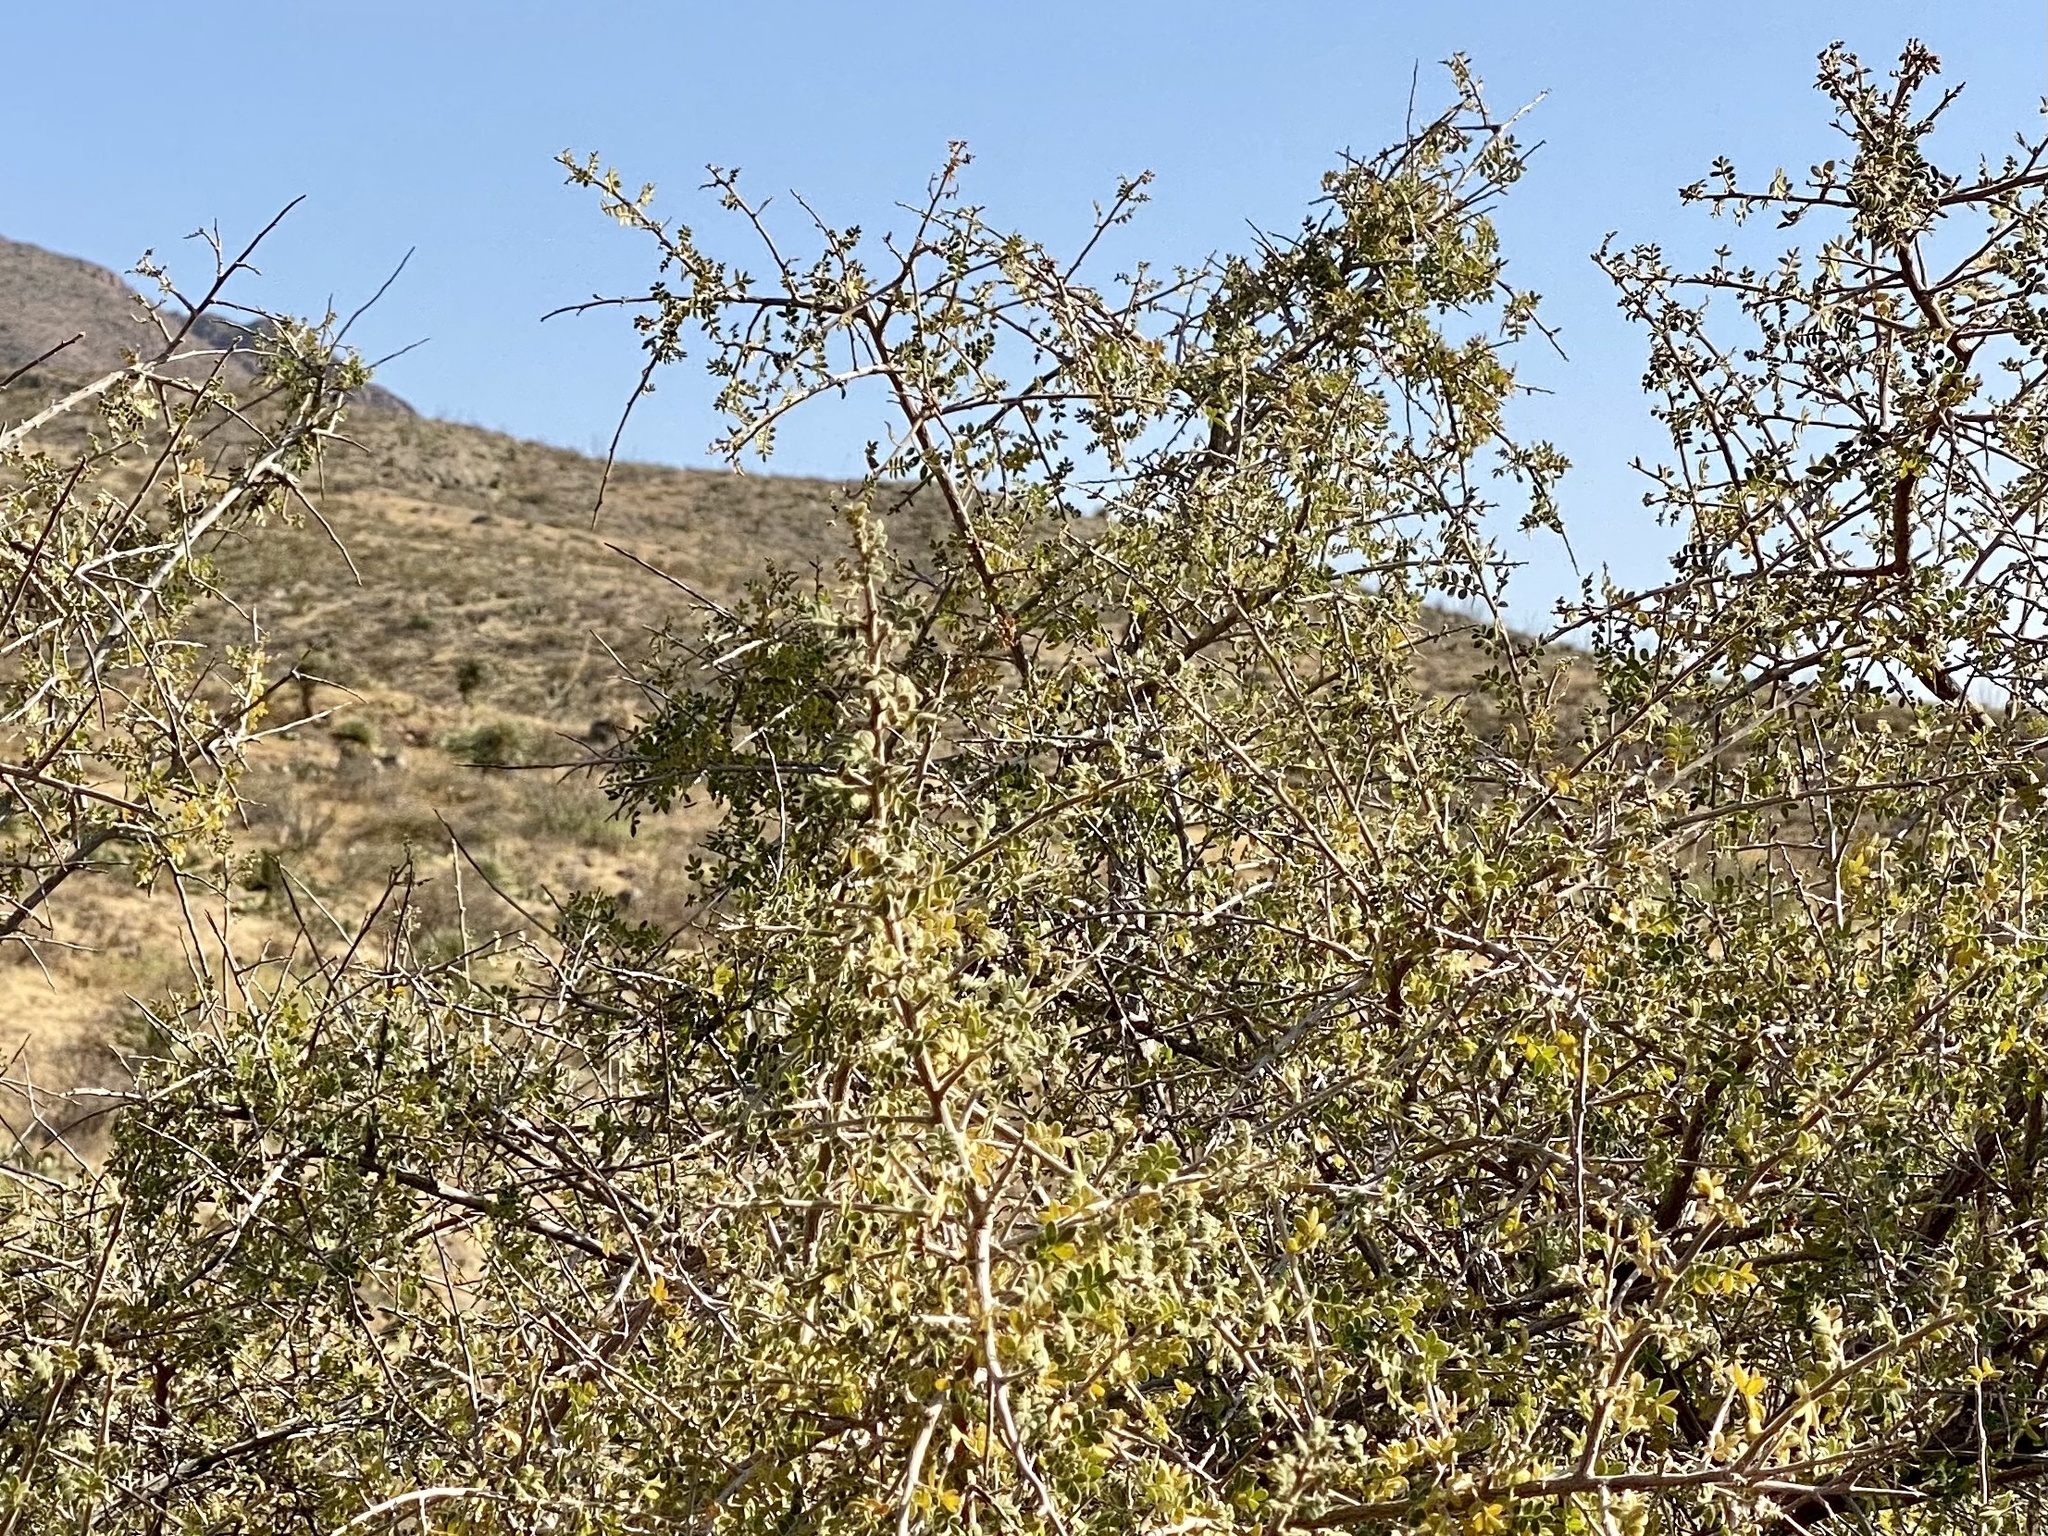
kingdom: Plantae
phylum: Tracheophyta
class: Magnoliopsida
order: Sapindales
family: Anacardiaceae
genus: Rhus
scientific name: Rhus microphylla
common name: Desert sumac
